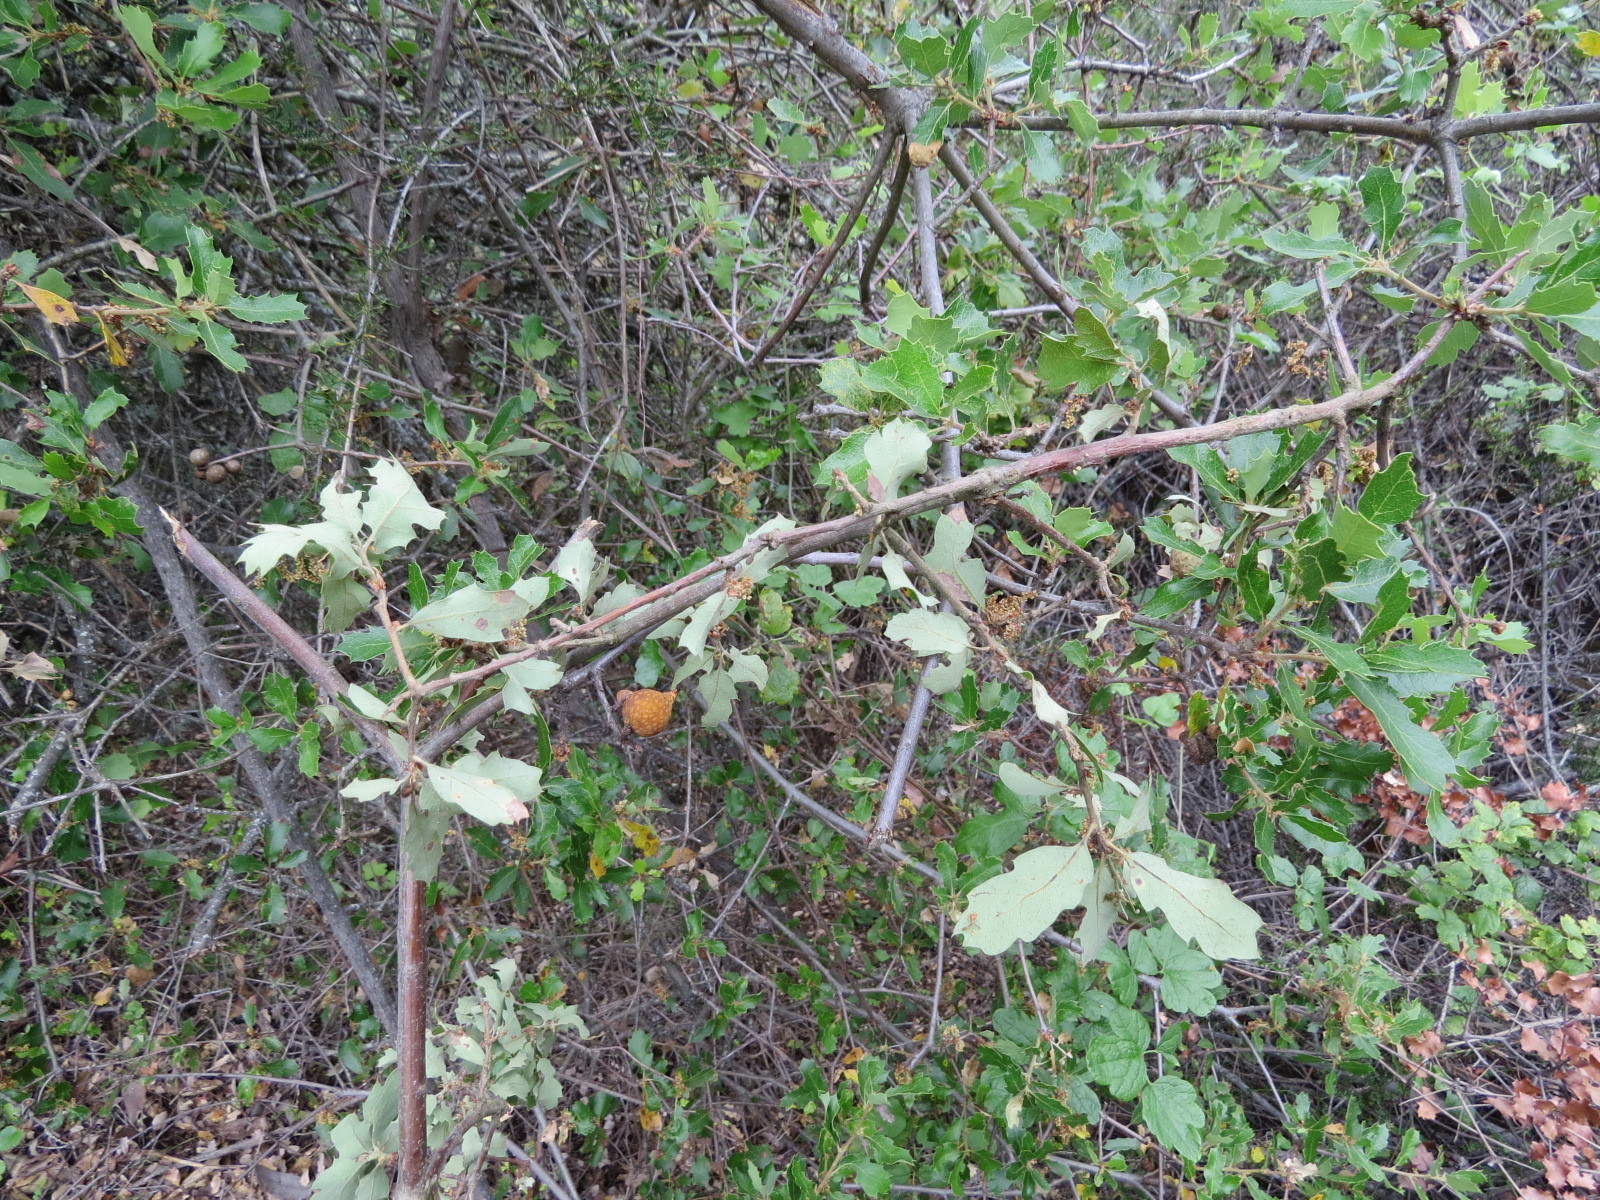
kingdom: Animalia
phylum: Arthropoda
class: Insecta
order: Hymenoptera
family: Cynipidae
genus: Burnettweldia
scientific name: Burnettweldia
